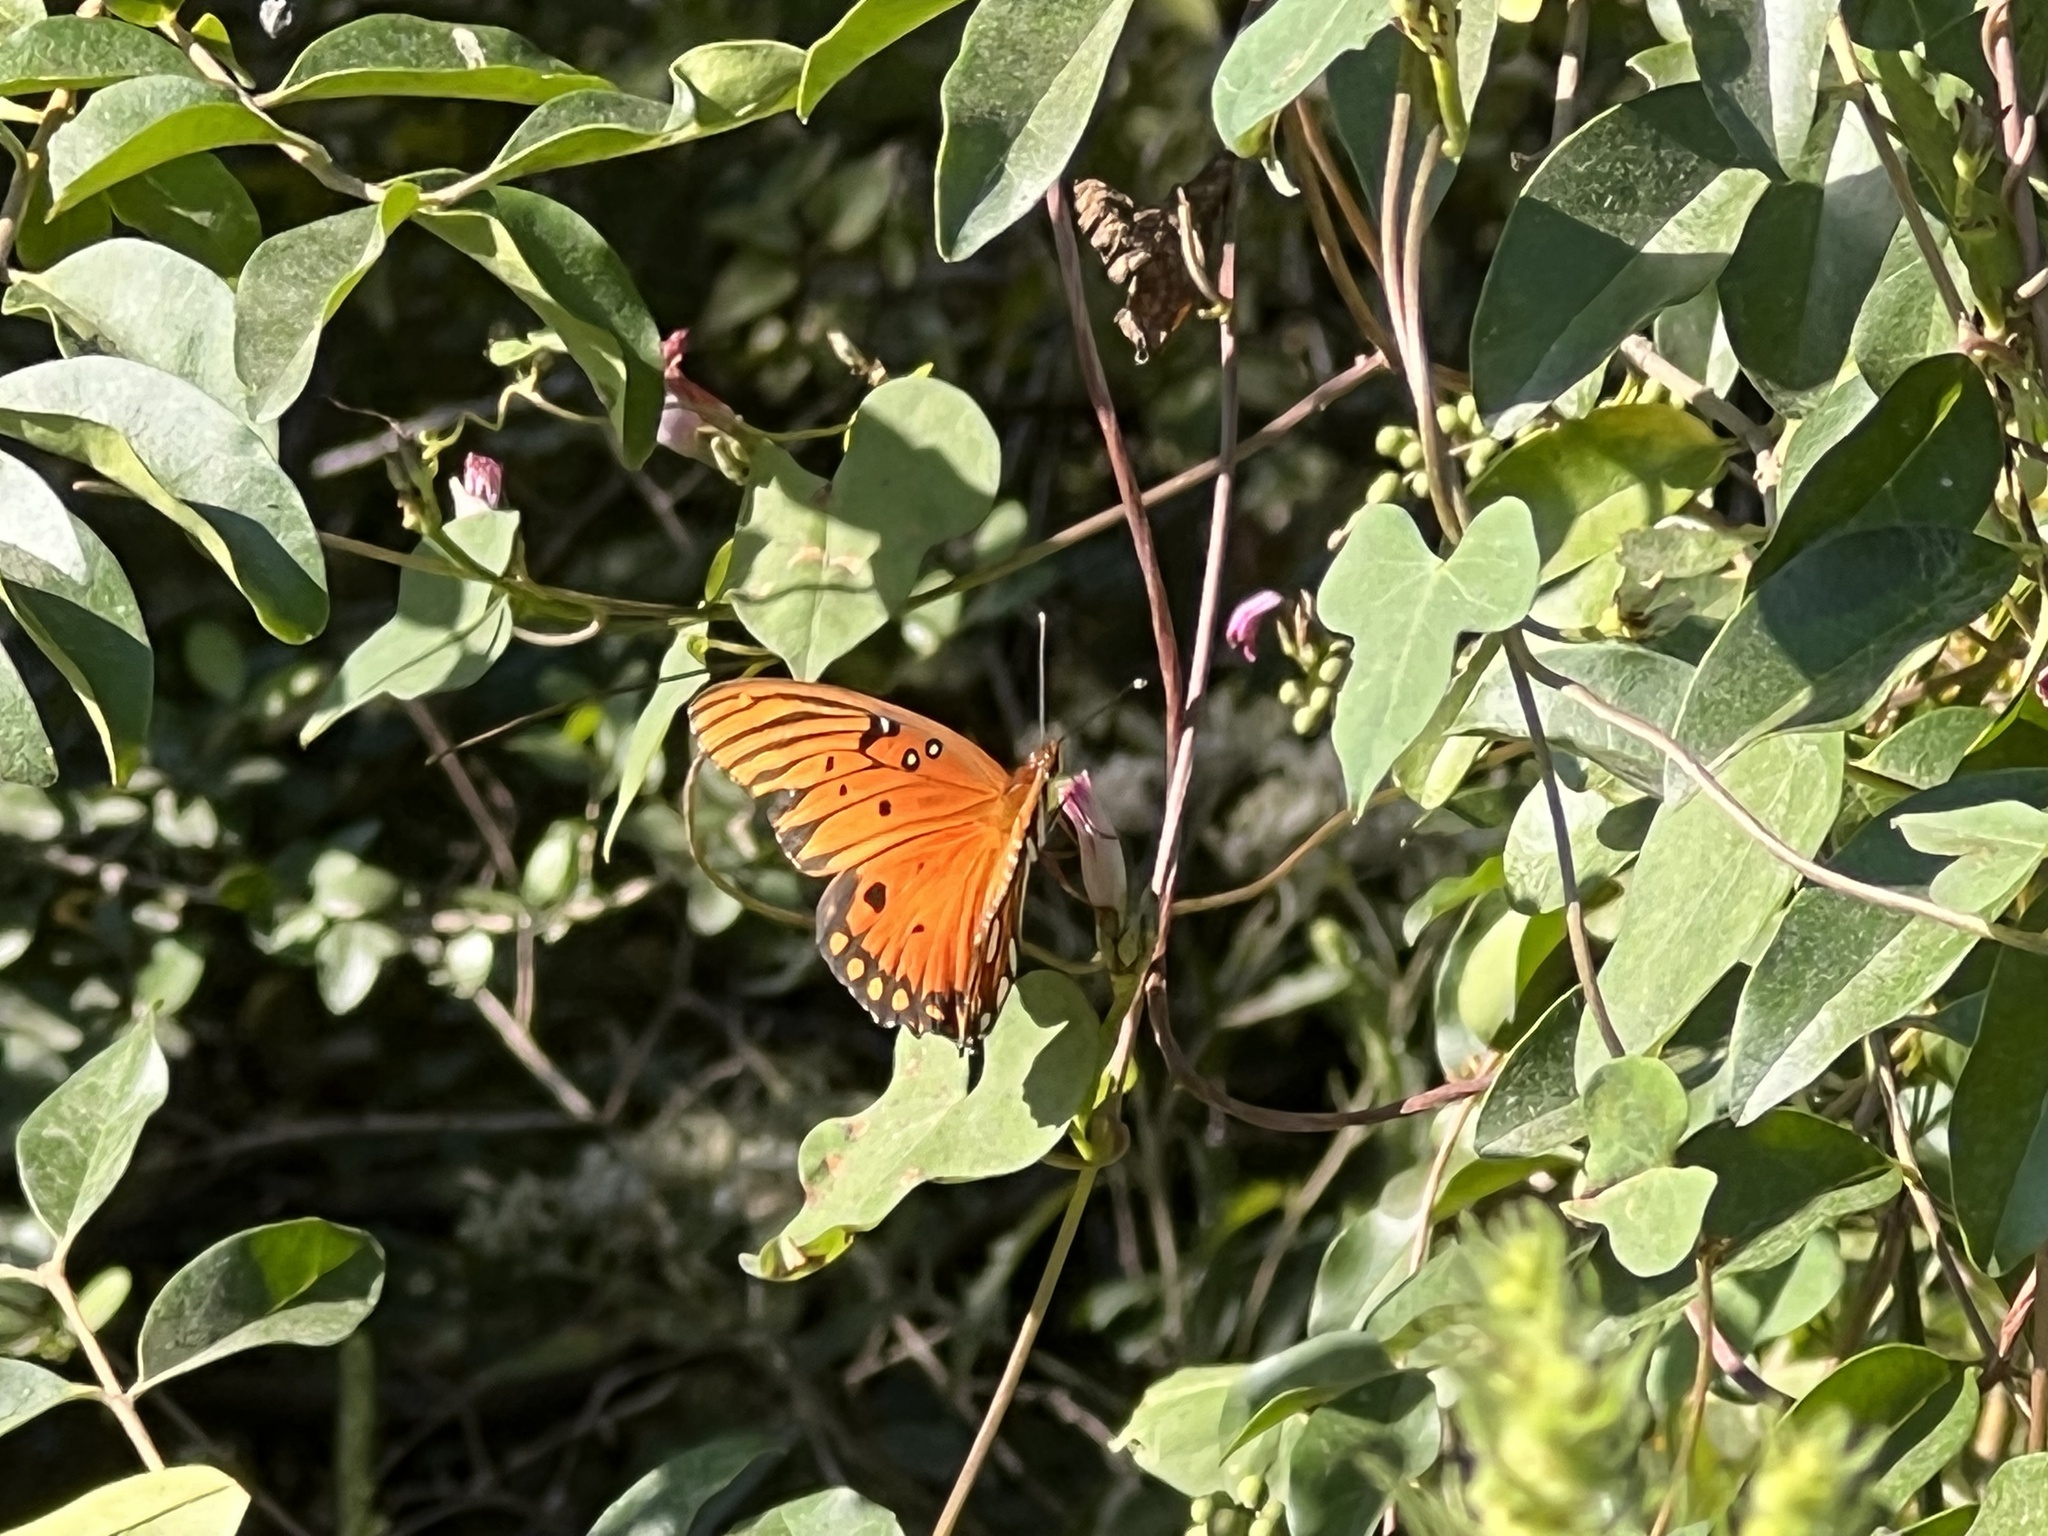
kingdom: Animalia
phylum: Arthropoda
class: Insecta
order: Lepidoptera
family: Nymphalidae
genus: Dione
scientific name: Dione vanillae
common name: Gulf fritillary
